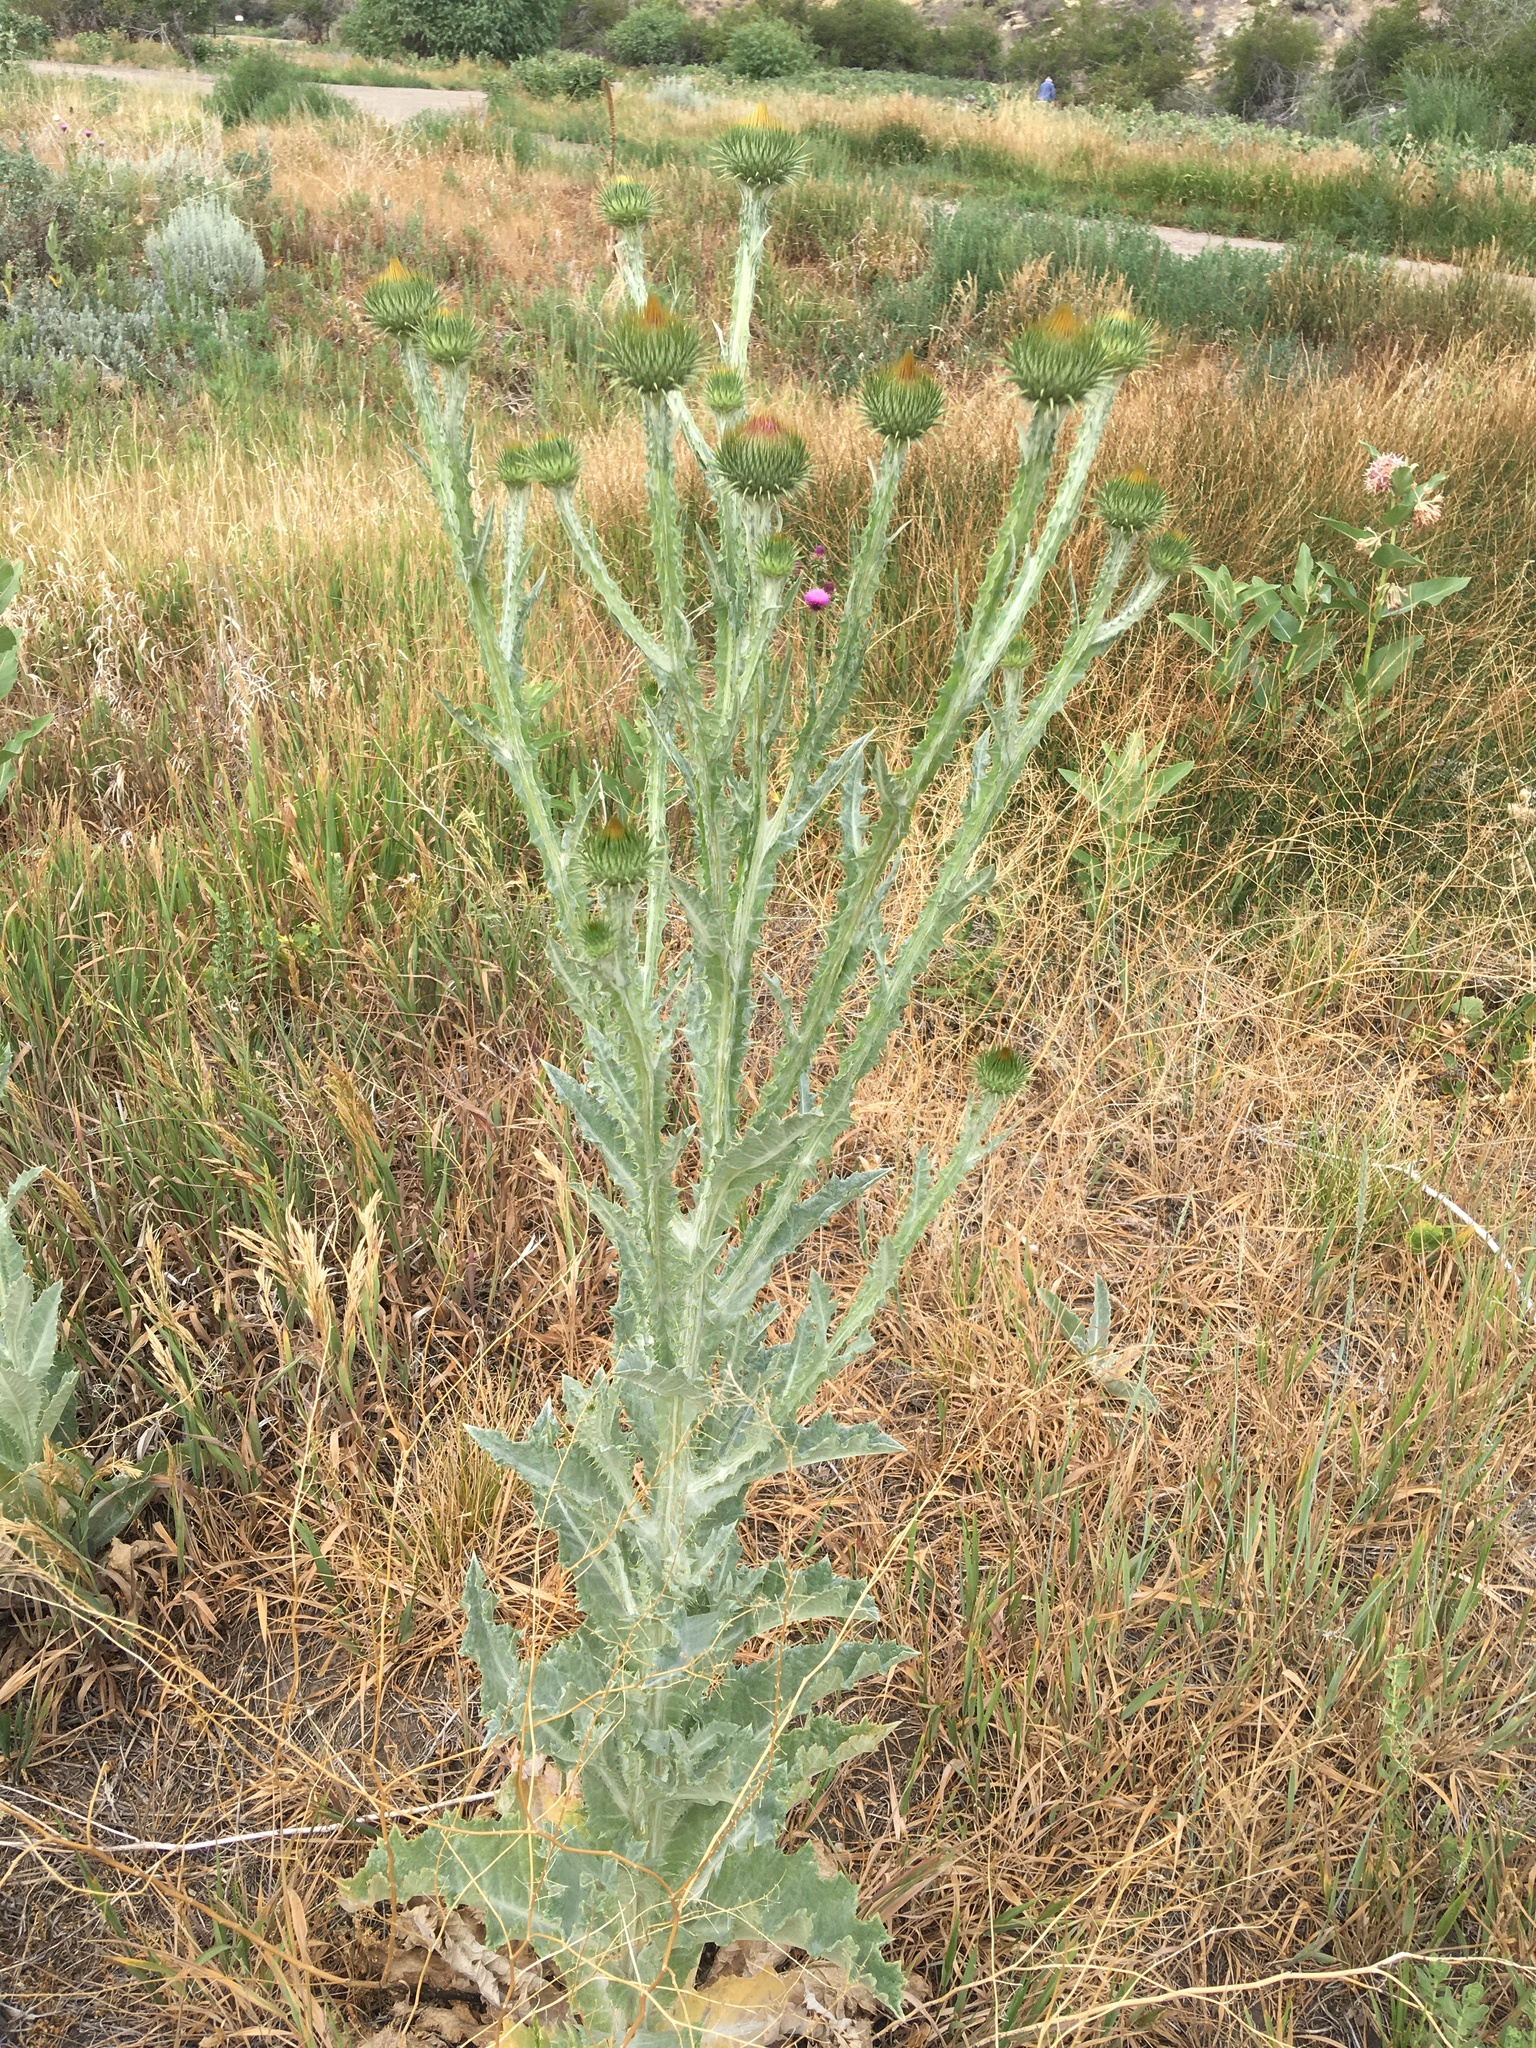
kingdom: Plantae
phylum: Tracheophyta
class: Magnoliopsida
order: Asterales
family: Asteraceae
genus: Onopordum
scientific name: Onopordum acanthium
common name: Scotch thistle
